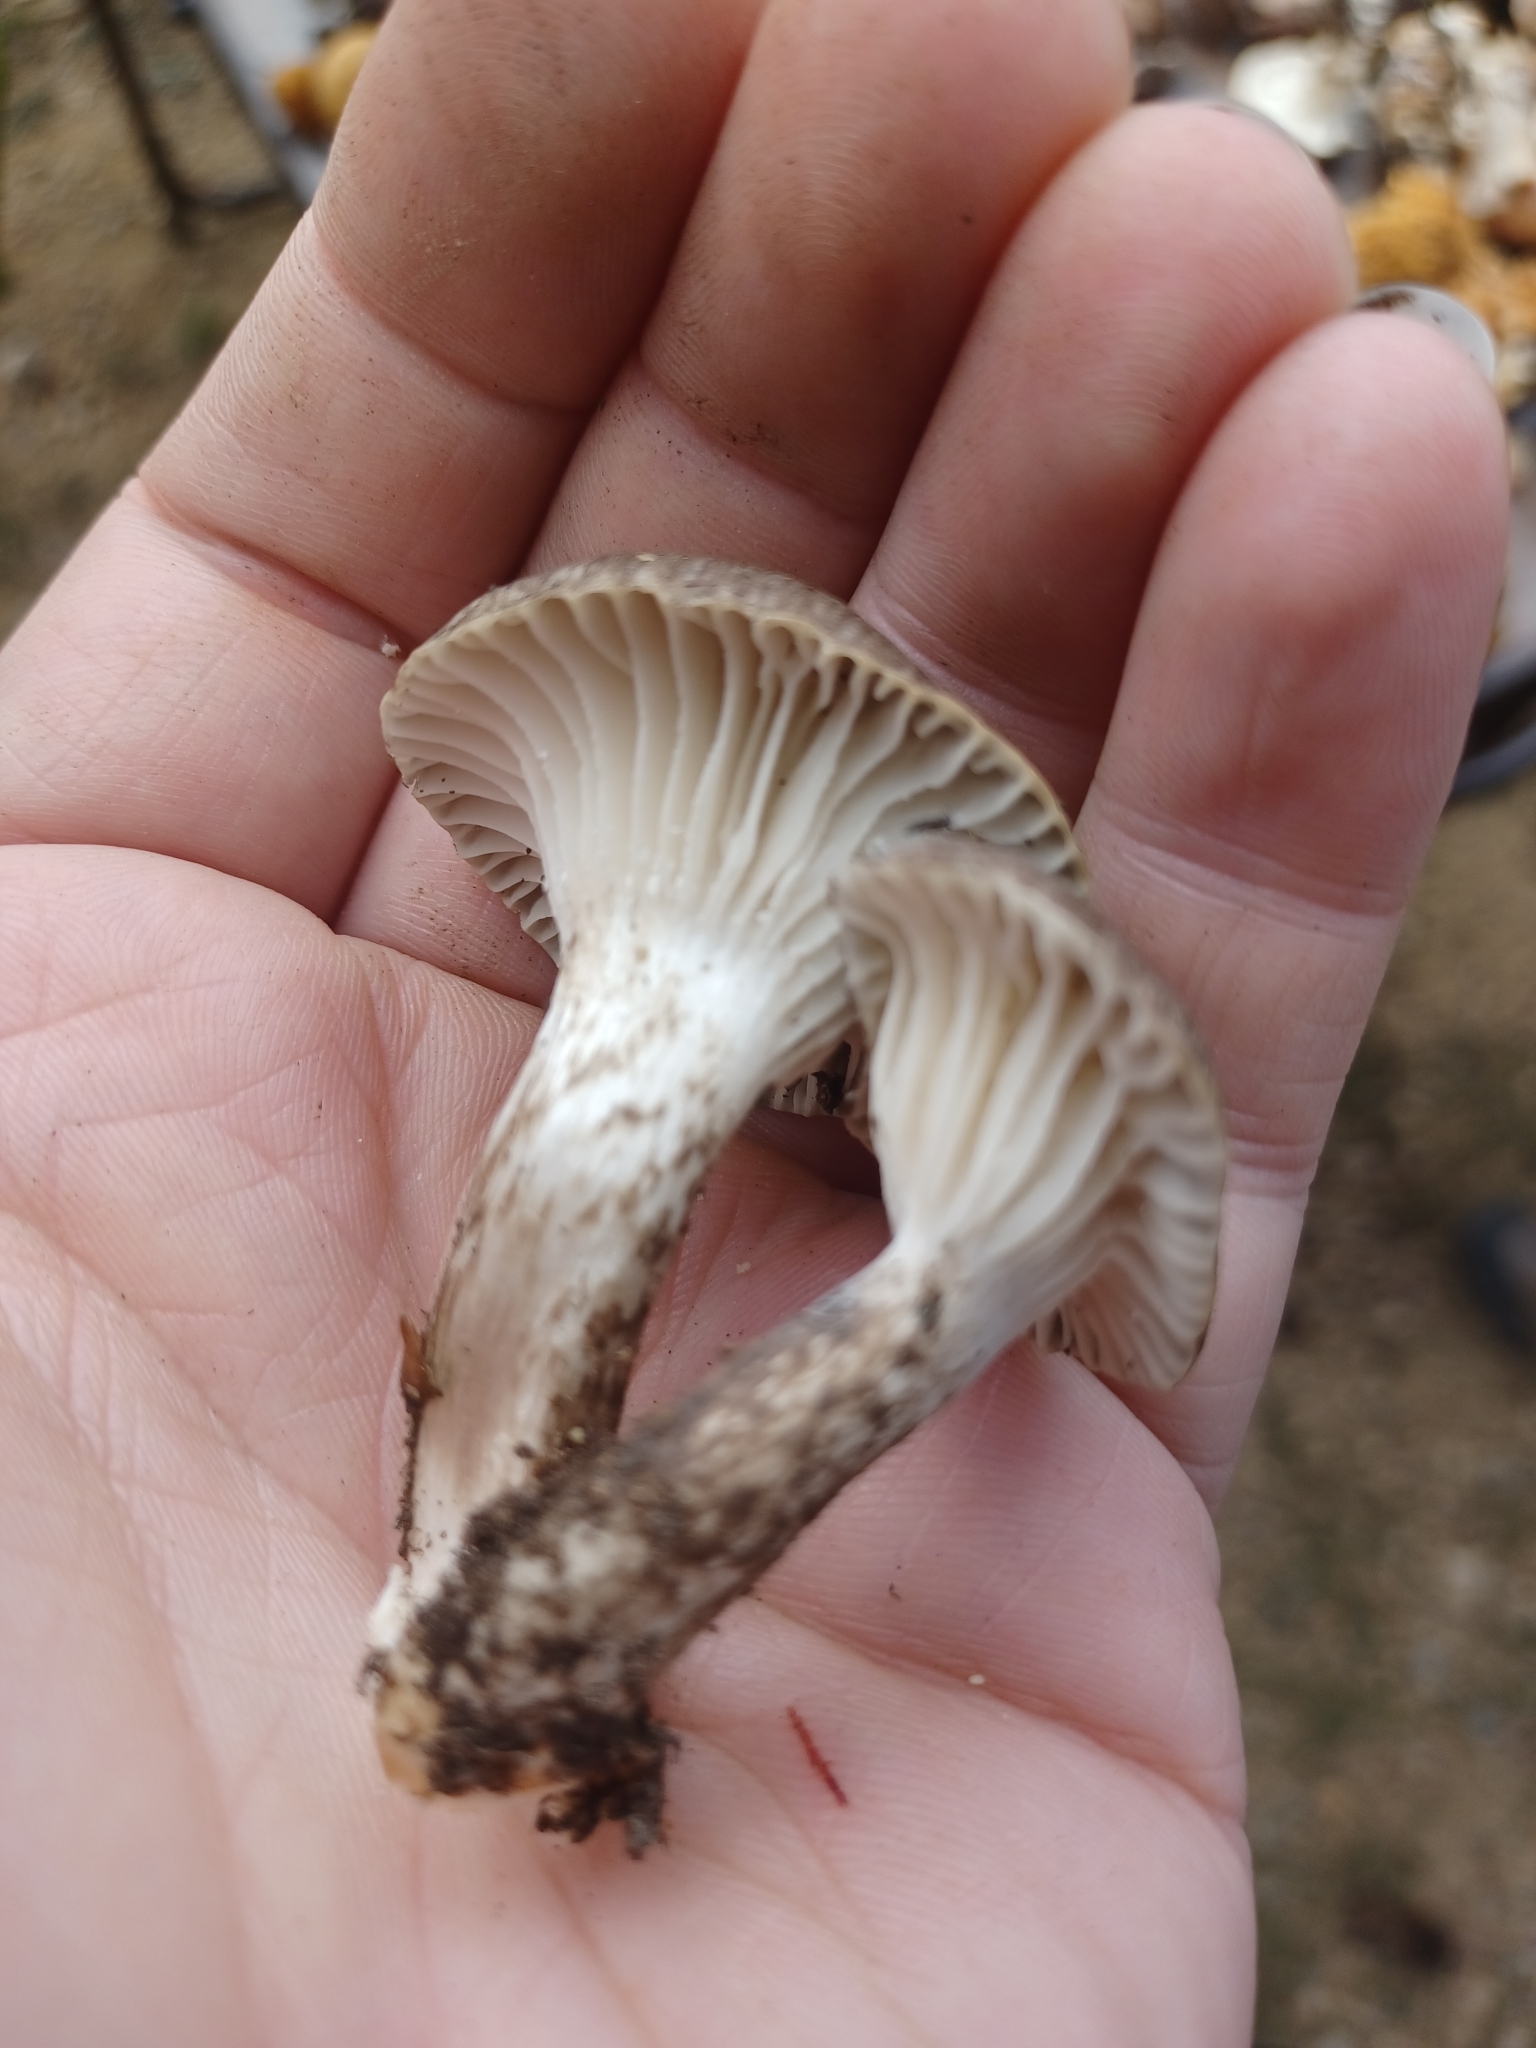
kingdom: Fungi
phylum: Basidiomycota
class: Agaricomycetes
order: Agaricales
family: Hygrophoraceae
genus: Hygrophorus
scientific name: Hygrophorus olivaceoalbus
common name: Olive wax cap
